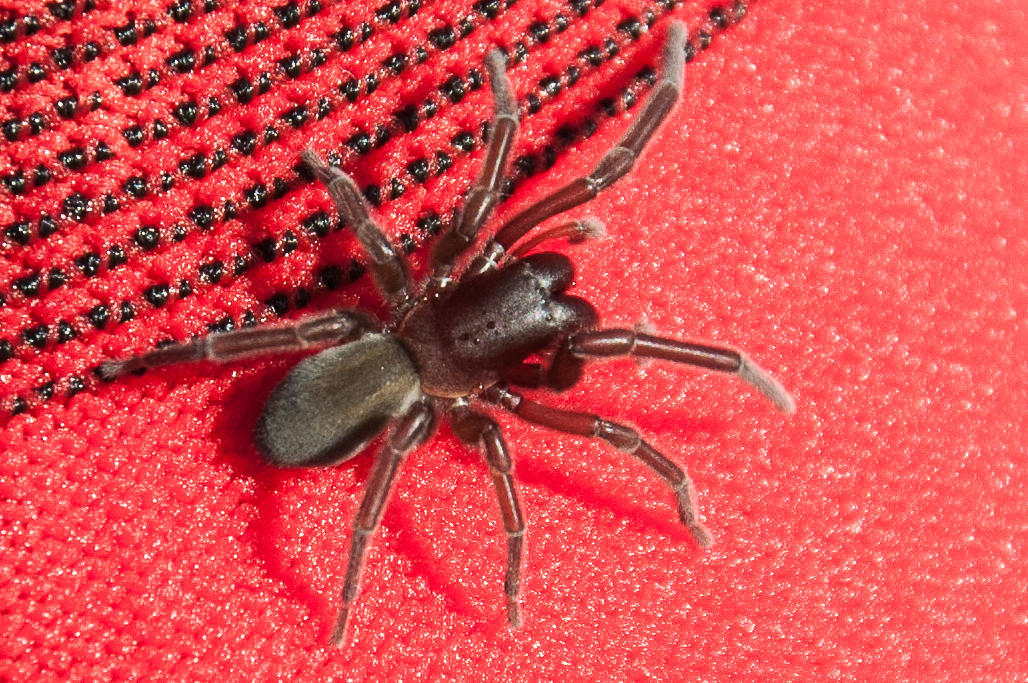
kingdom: Animalia
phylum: Arthropoda
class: Arachnida
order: Araneae
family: Desidae
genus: Desis
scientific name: Desis formidabilis
